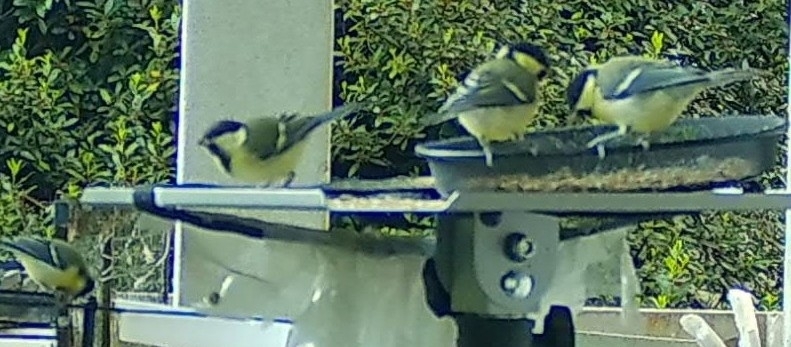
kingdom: Animalia
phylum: Chordata
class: Aves
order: Passeriformes
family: Paridae
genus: Parus
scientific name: Parus major
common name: Great tit
